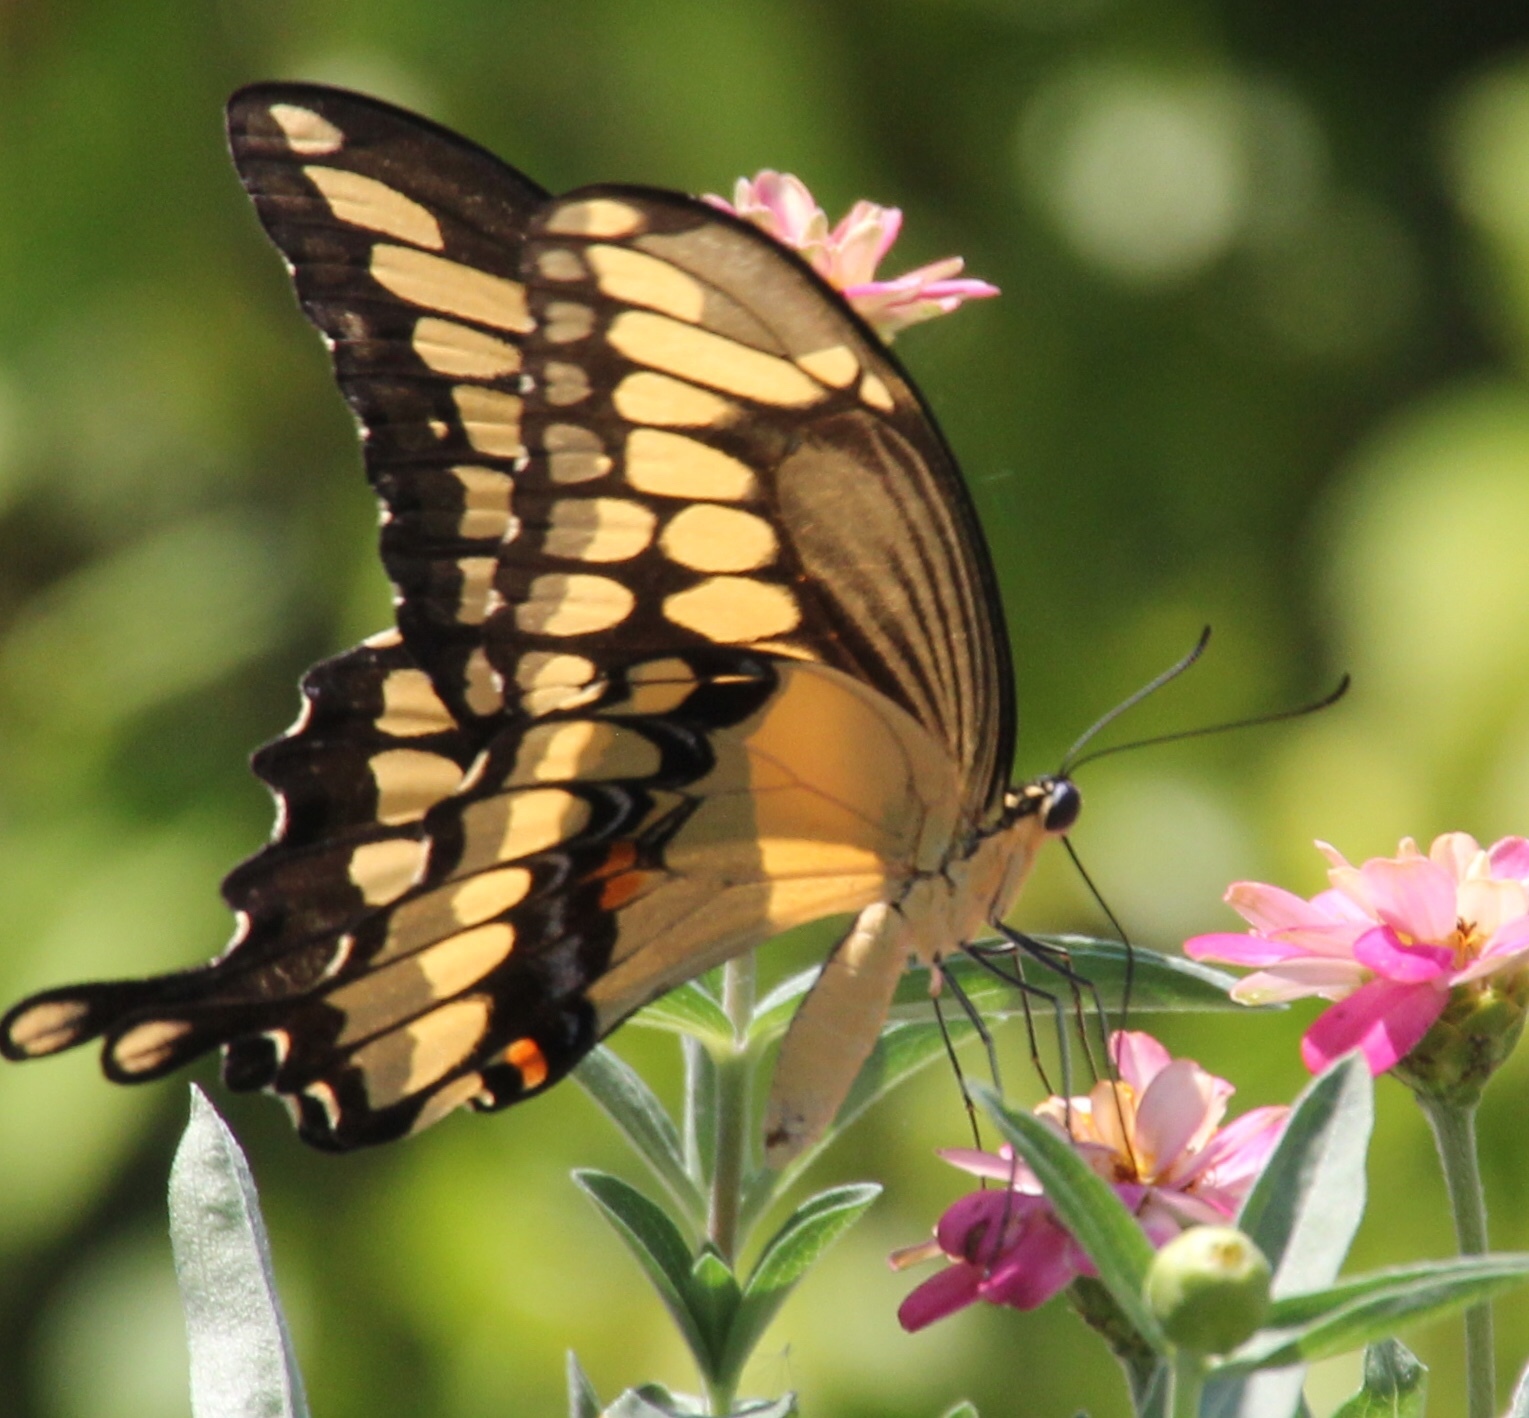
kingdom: Animalia
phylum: Arthropoda
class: Insecta
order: Lepidoptera
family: Papilionidae
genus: Papilio
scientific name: Papilio cresphontes
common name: Giant swallowtail
